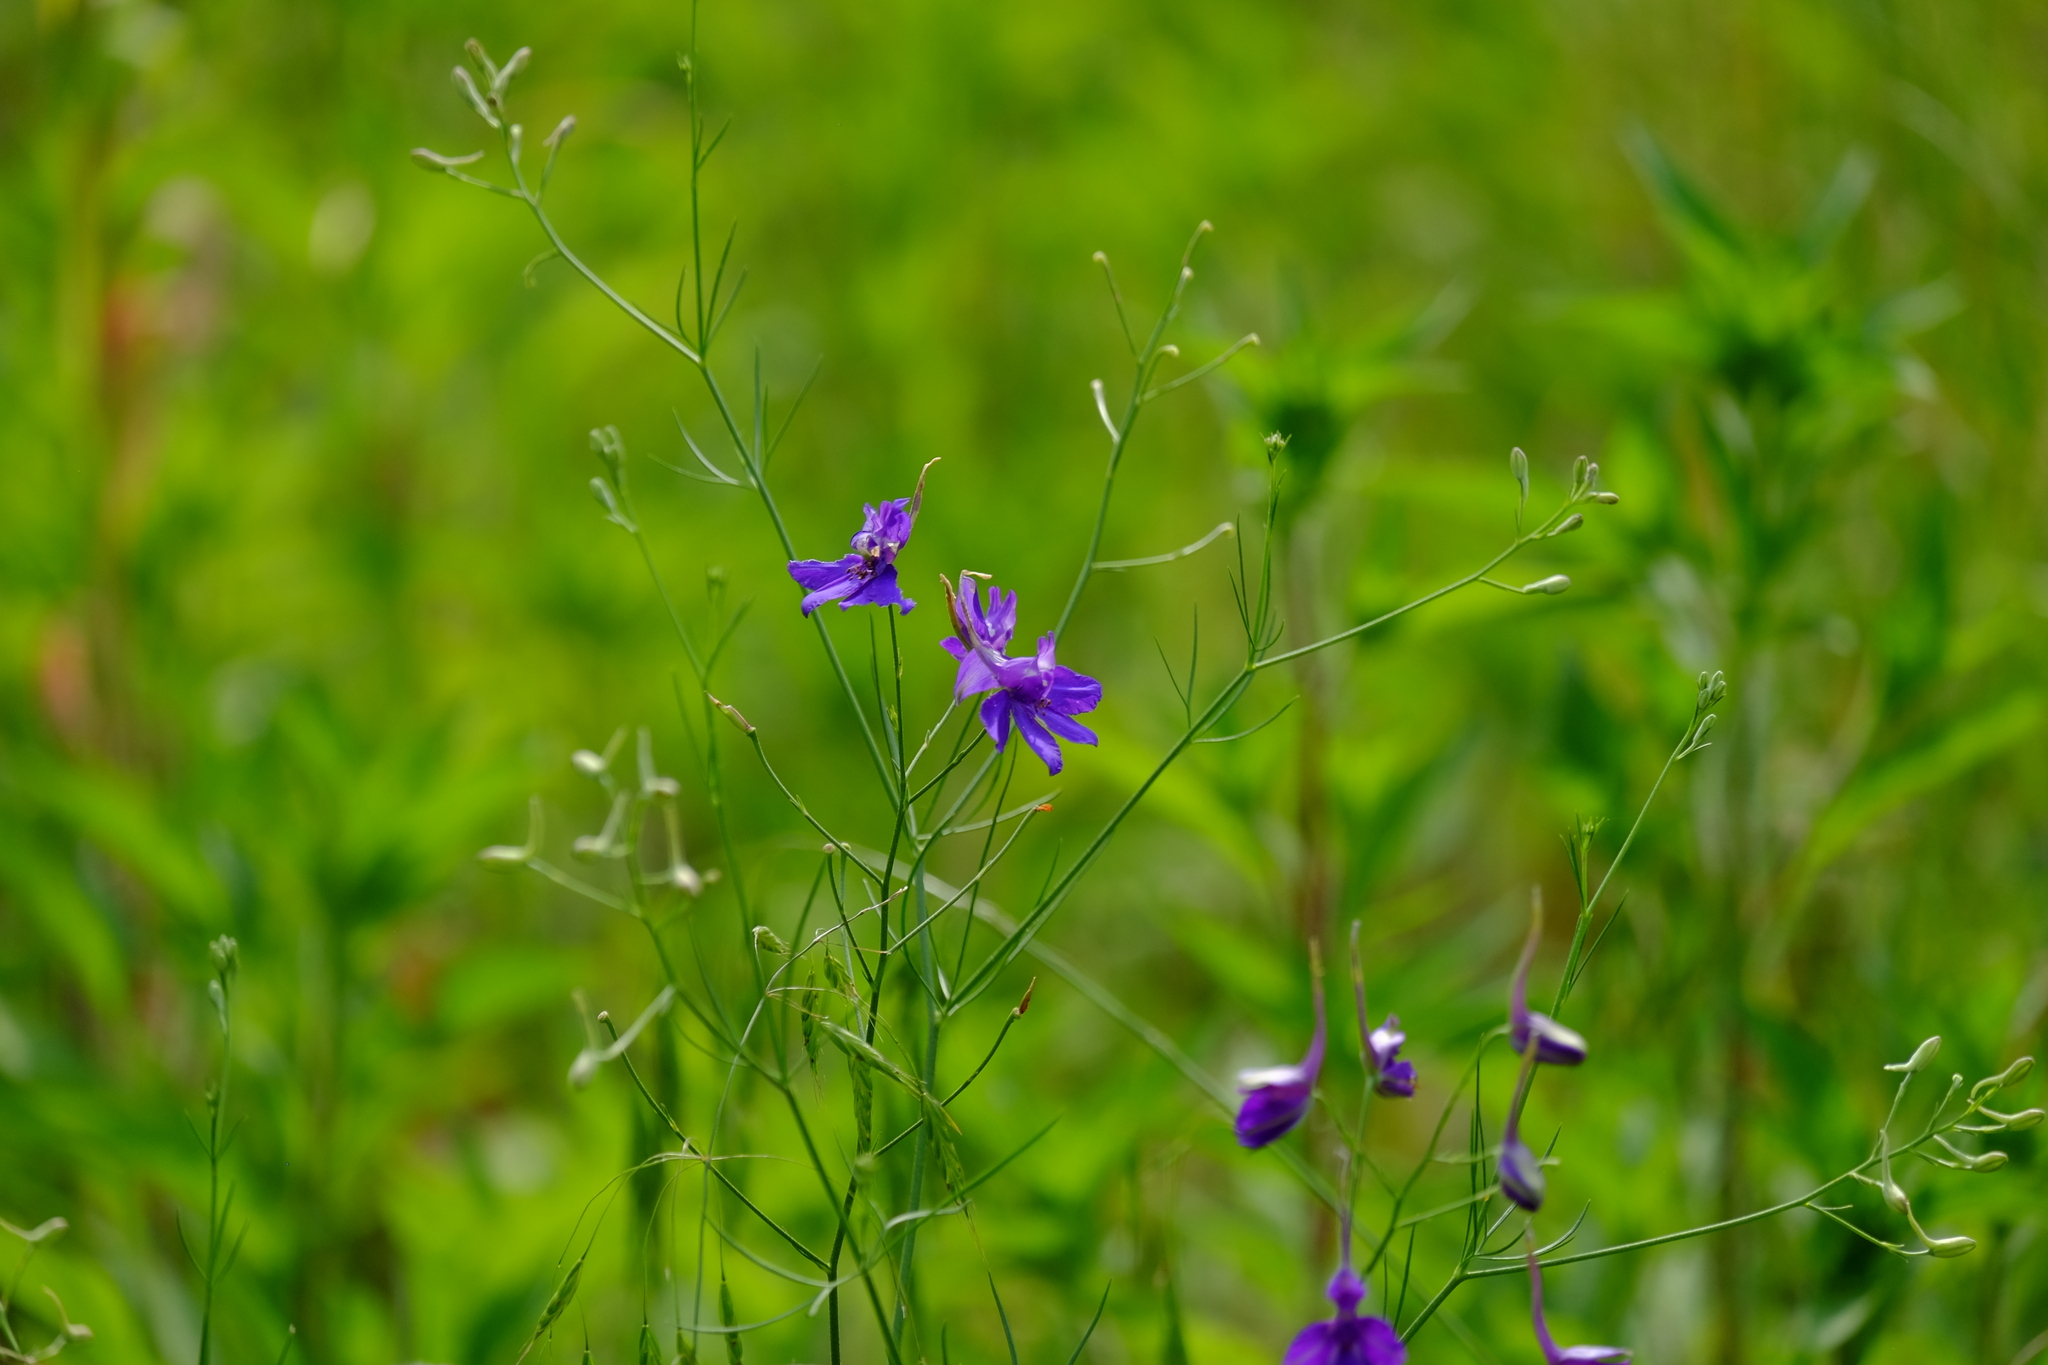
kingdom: Plantae
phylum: Tracheophyta
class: Magnoliopsida
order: Ranunculales
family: Ranunculaceae
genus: Delphinium
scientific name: Delphinium consolida
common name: Branching larkspur
